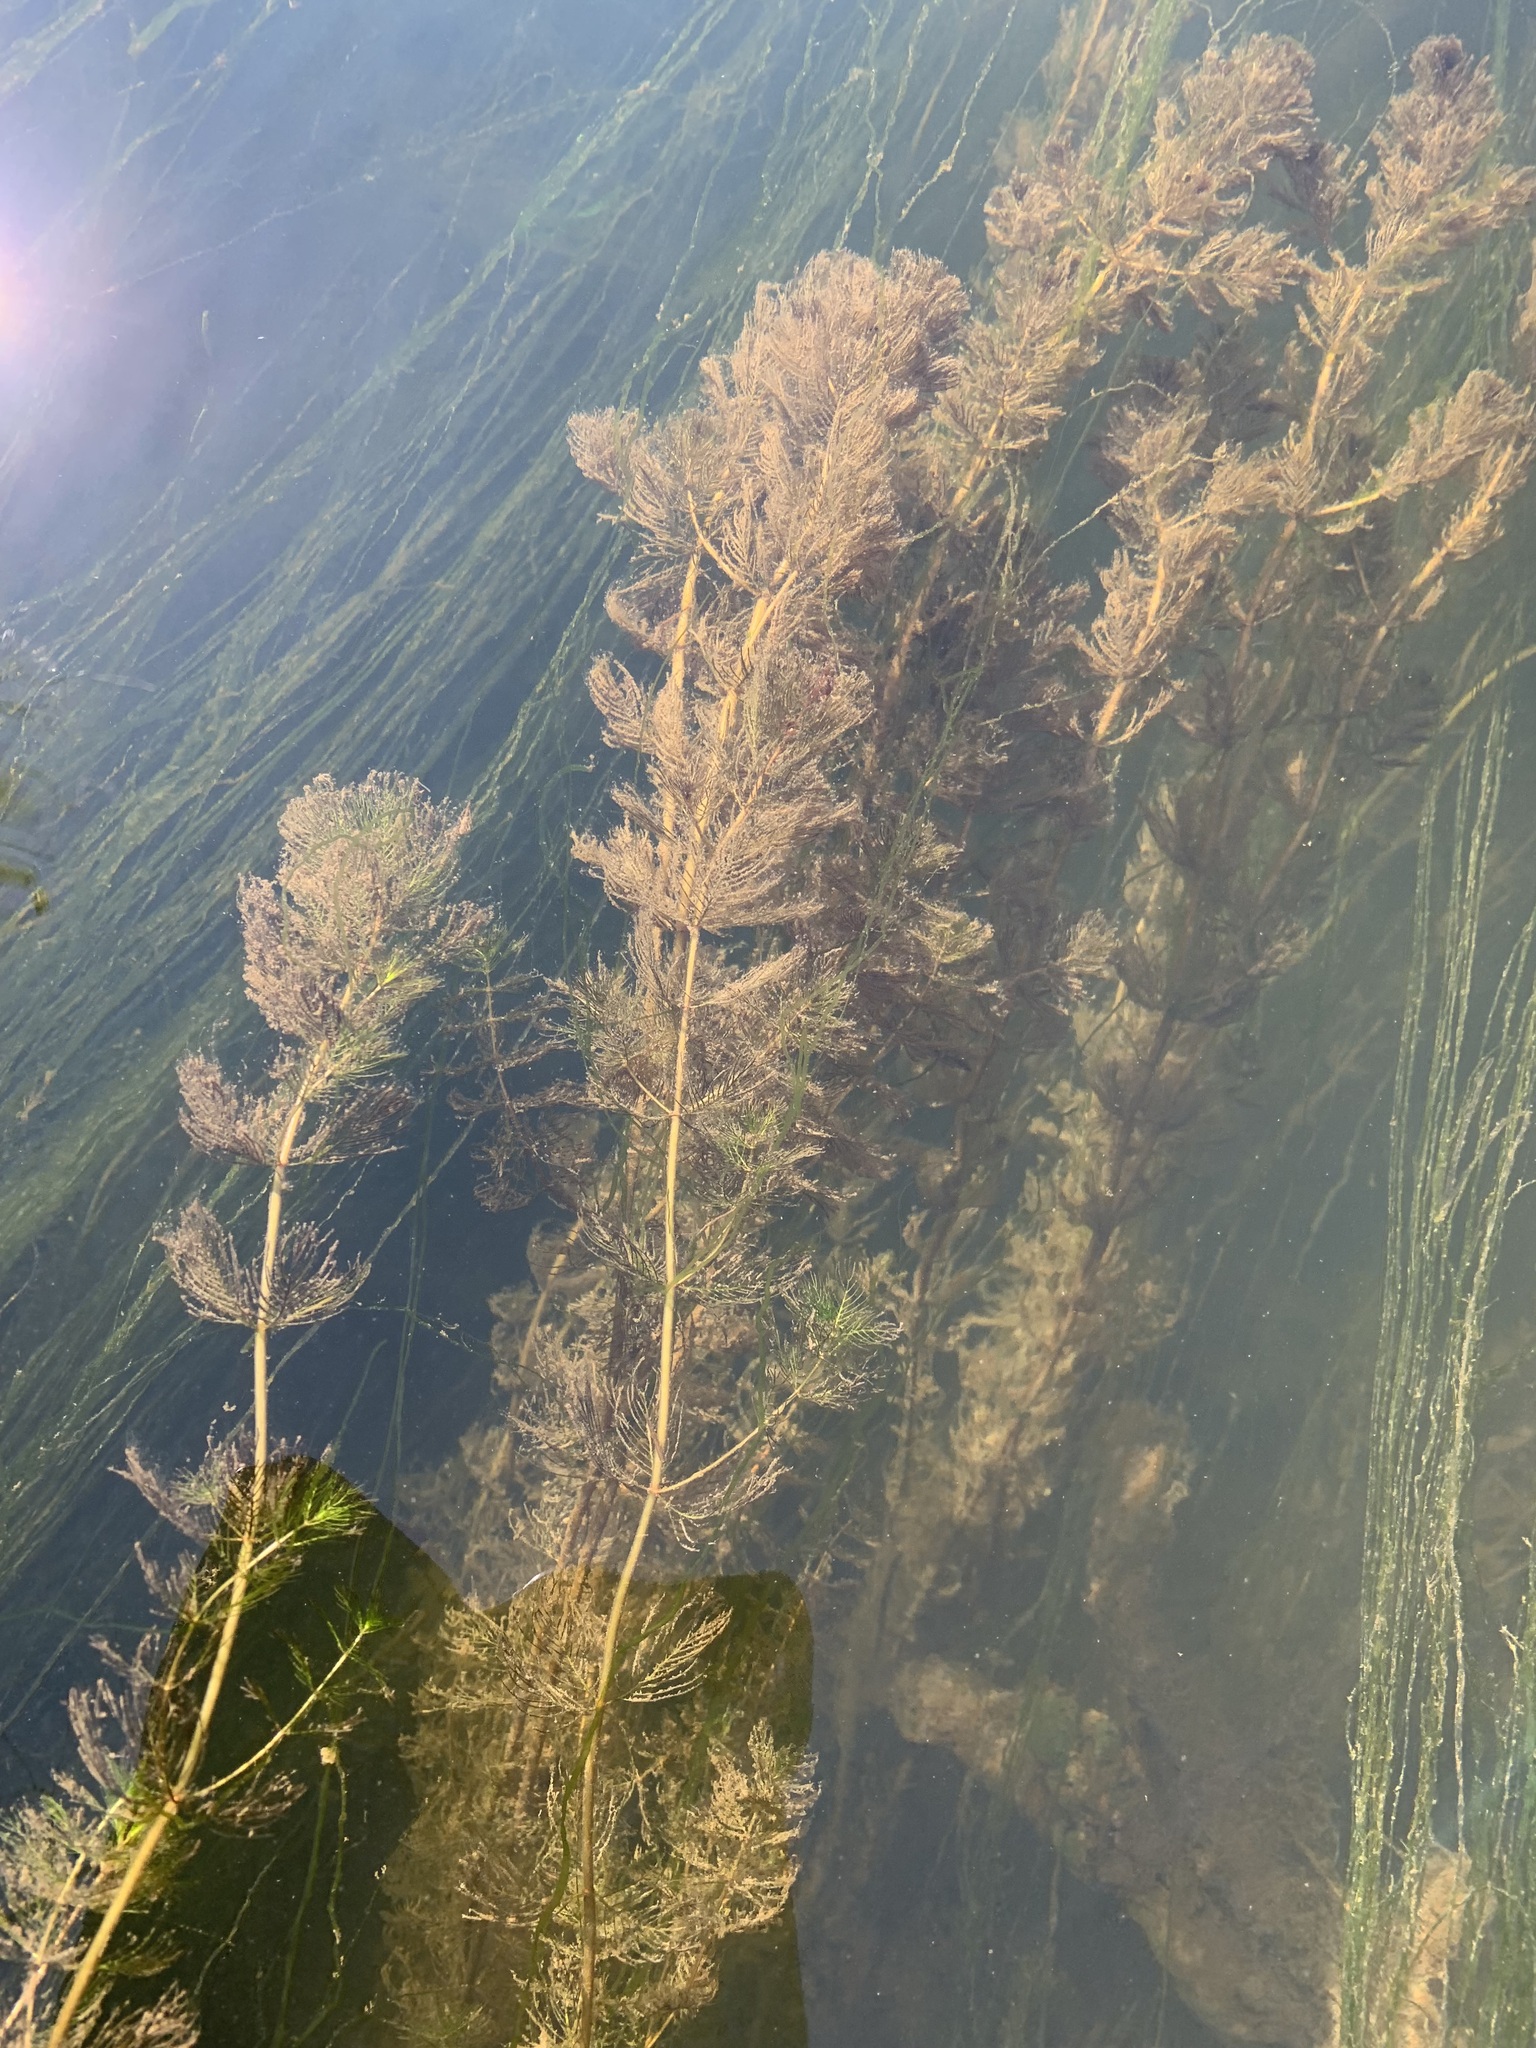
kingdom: Plantae
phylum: Tracheophyta
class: Magnoliopsida
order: Saxifragales
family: Haloragaceae
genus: Myriophyllum
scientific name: Myriophyllum sibiricum
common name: Siberian water-milfoil
